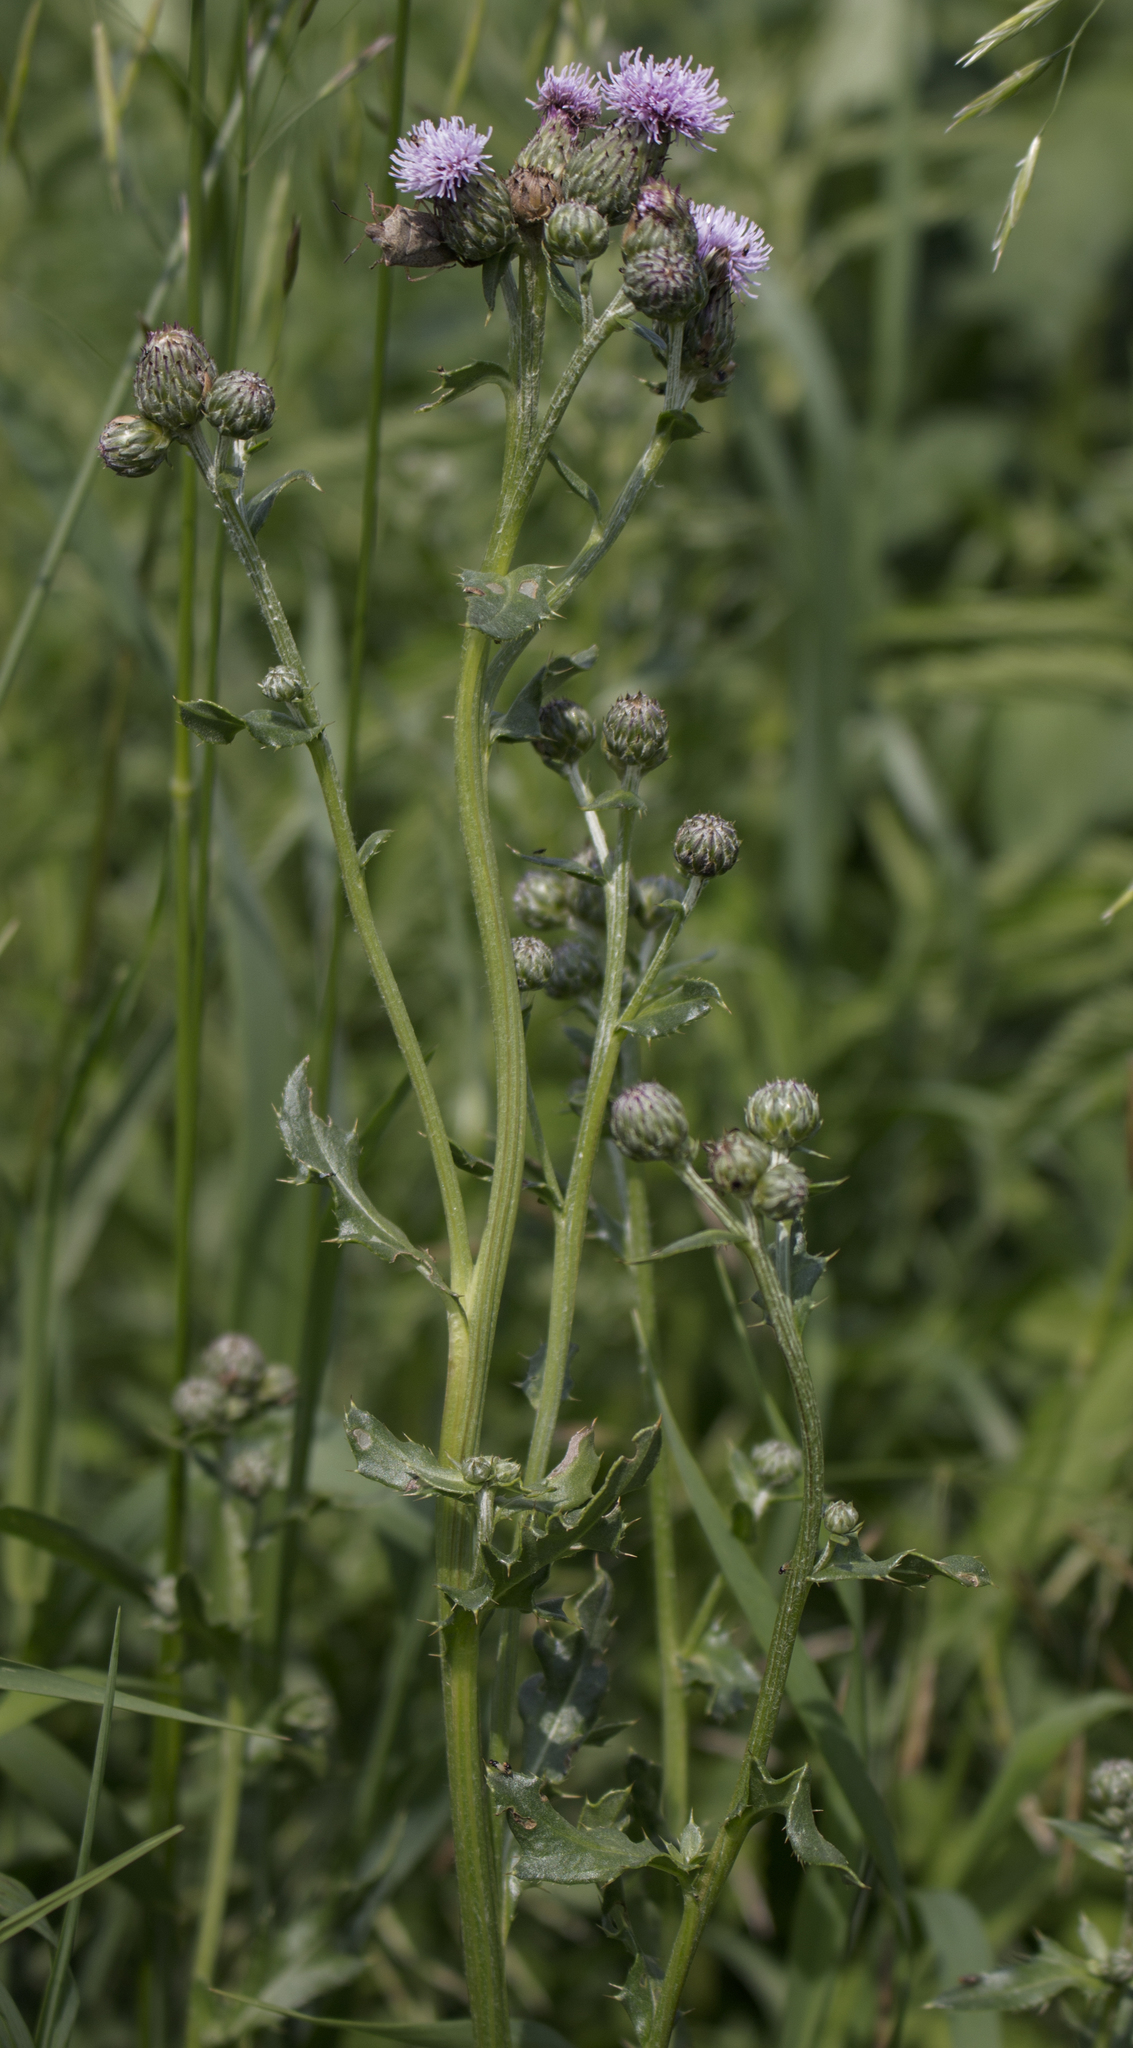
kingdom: Plantae
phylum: Tracheophyta
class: Magnoliopsida
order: Asterales
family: Asteraceae
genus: Cirsium
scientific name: Cirsium arvense
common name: Creeping thistle
